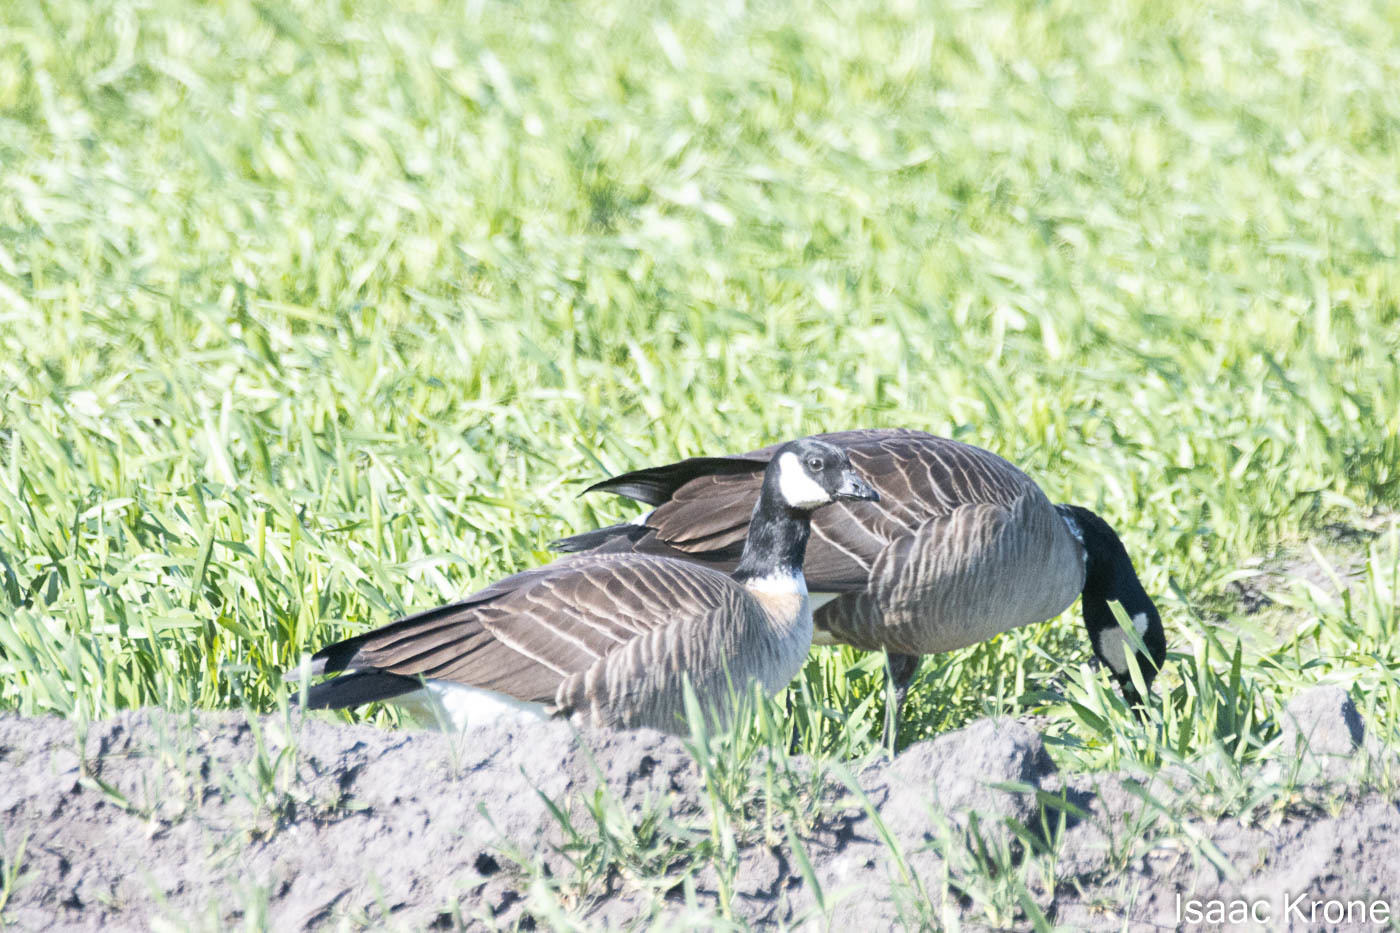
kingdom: Animalia
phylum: Chordata
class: Aves
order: Anseriformes
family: Anatidae
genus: Branta
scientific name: Branta hutchinsii
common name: Cackling goose
